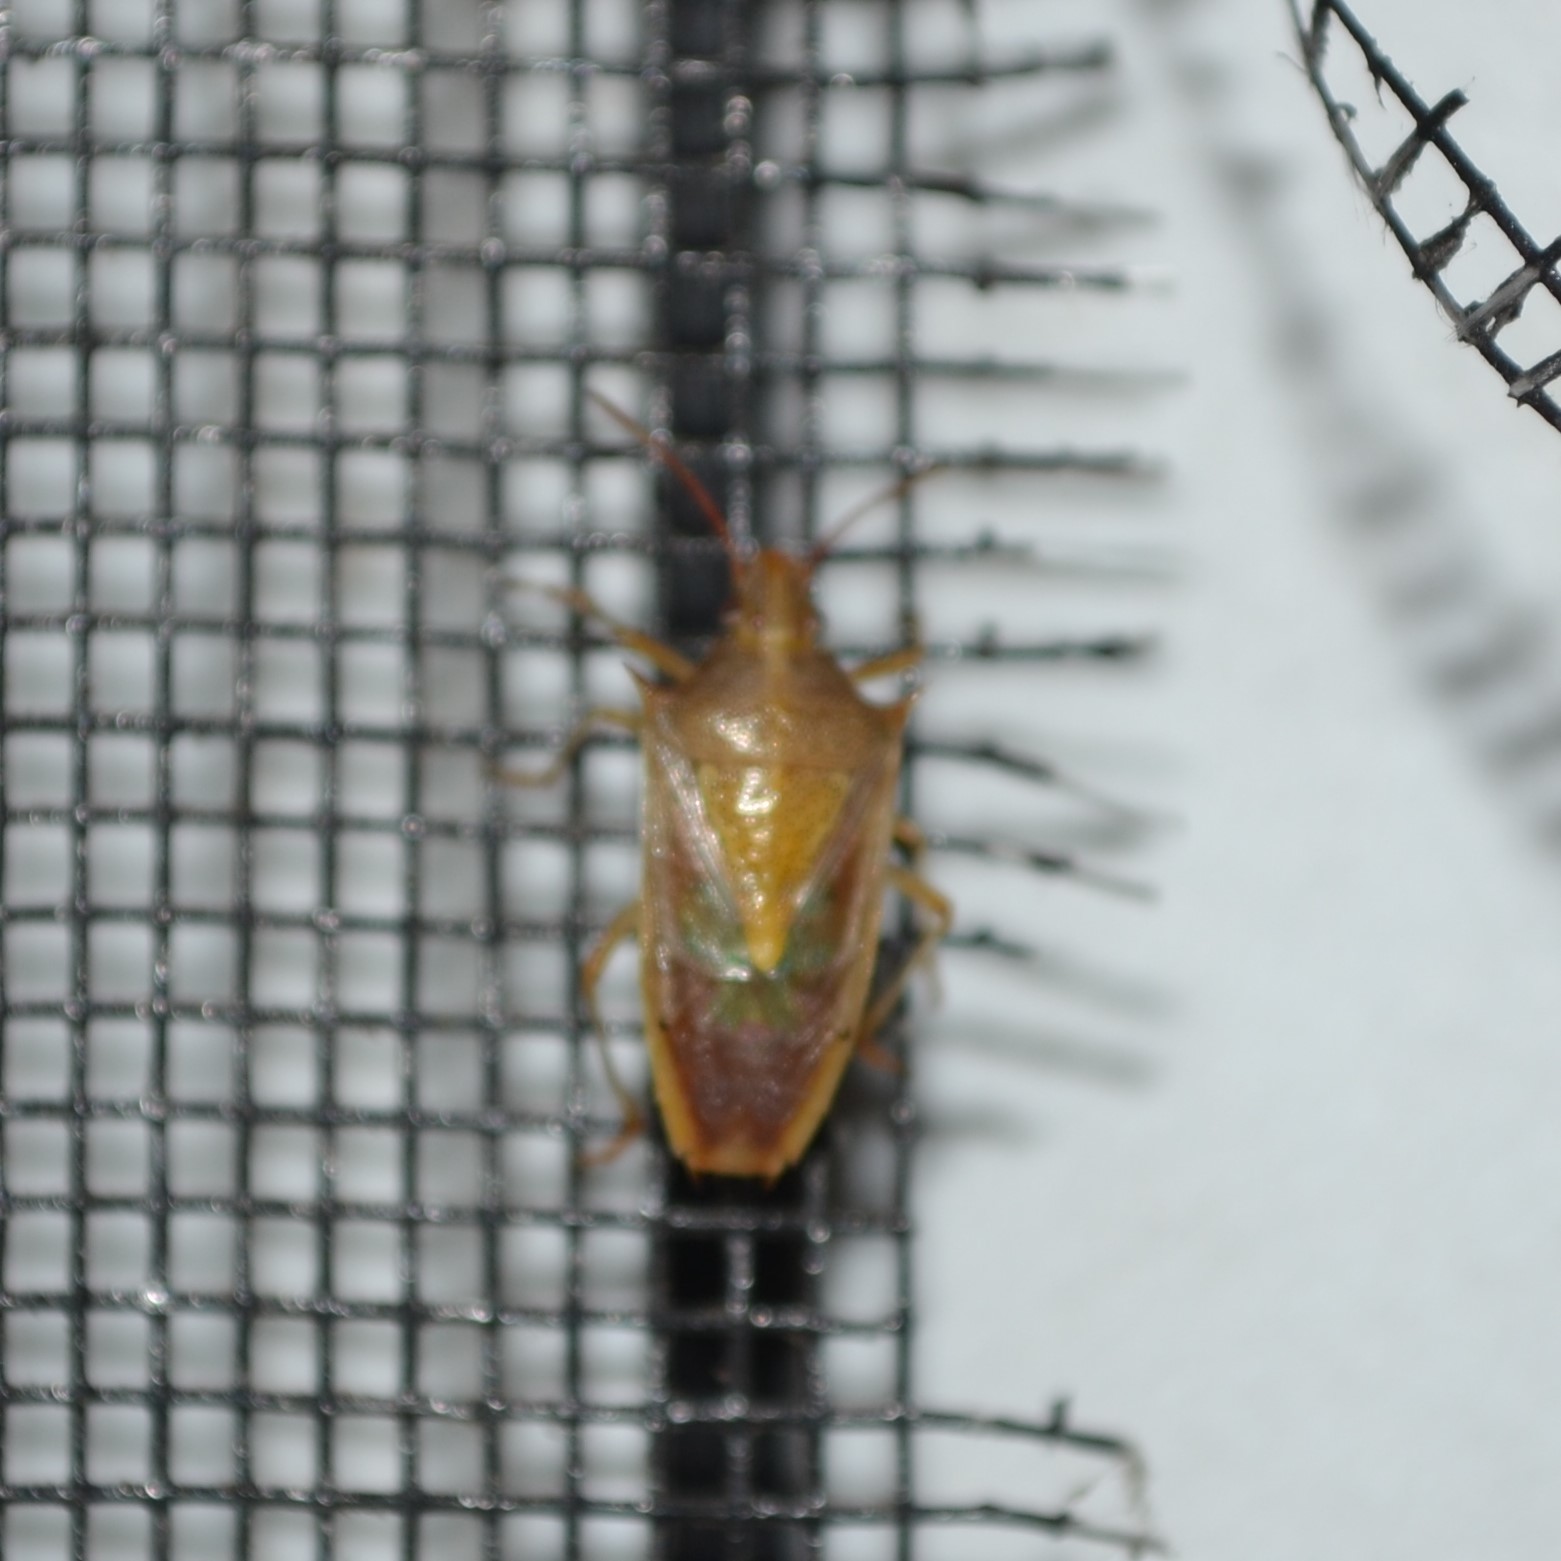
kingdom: Animalia
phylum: Arthropoda
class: Insecta
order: Hemiptera
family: Pentatomidae
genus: Oebalus
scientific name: Oebalus pugnax
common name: Rice stink bug
